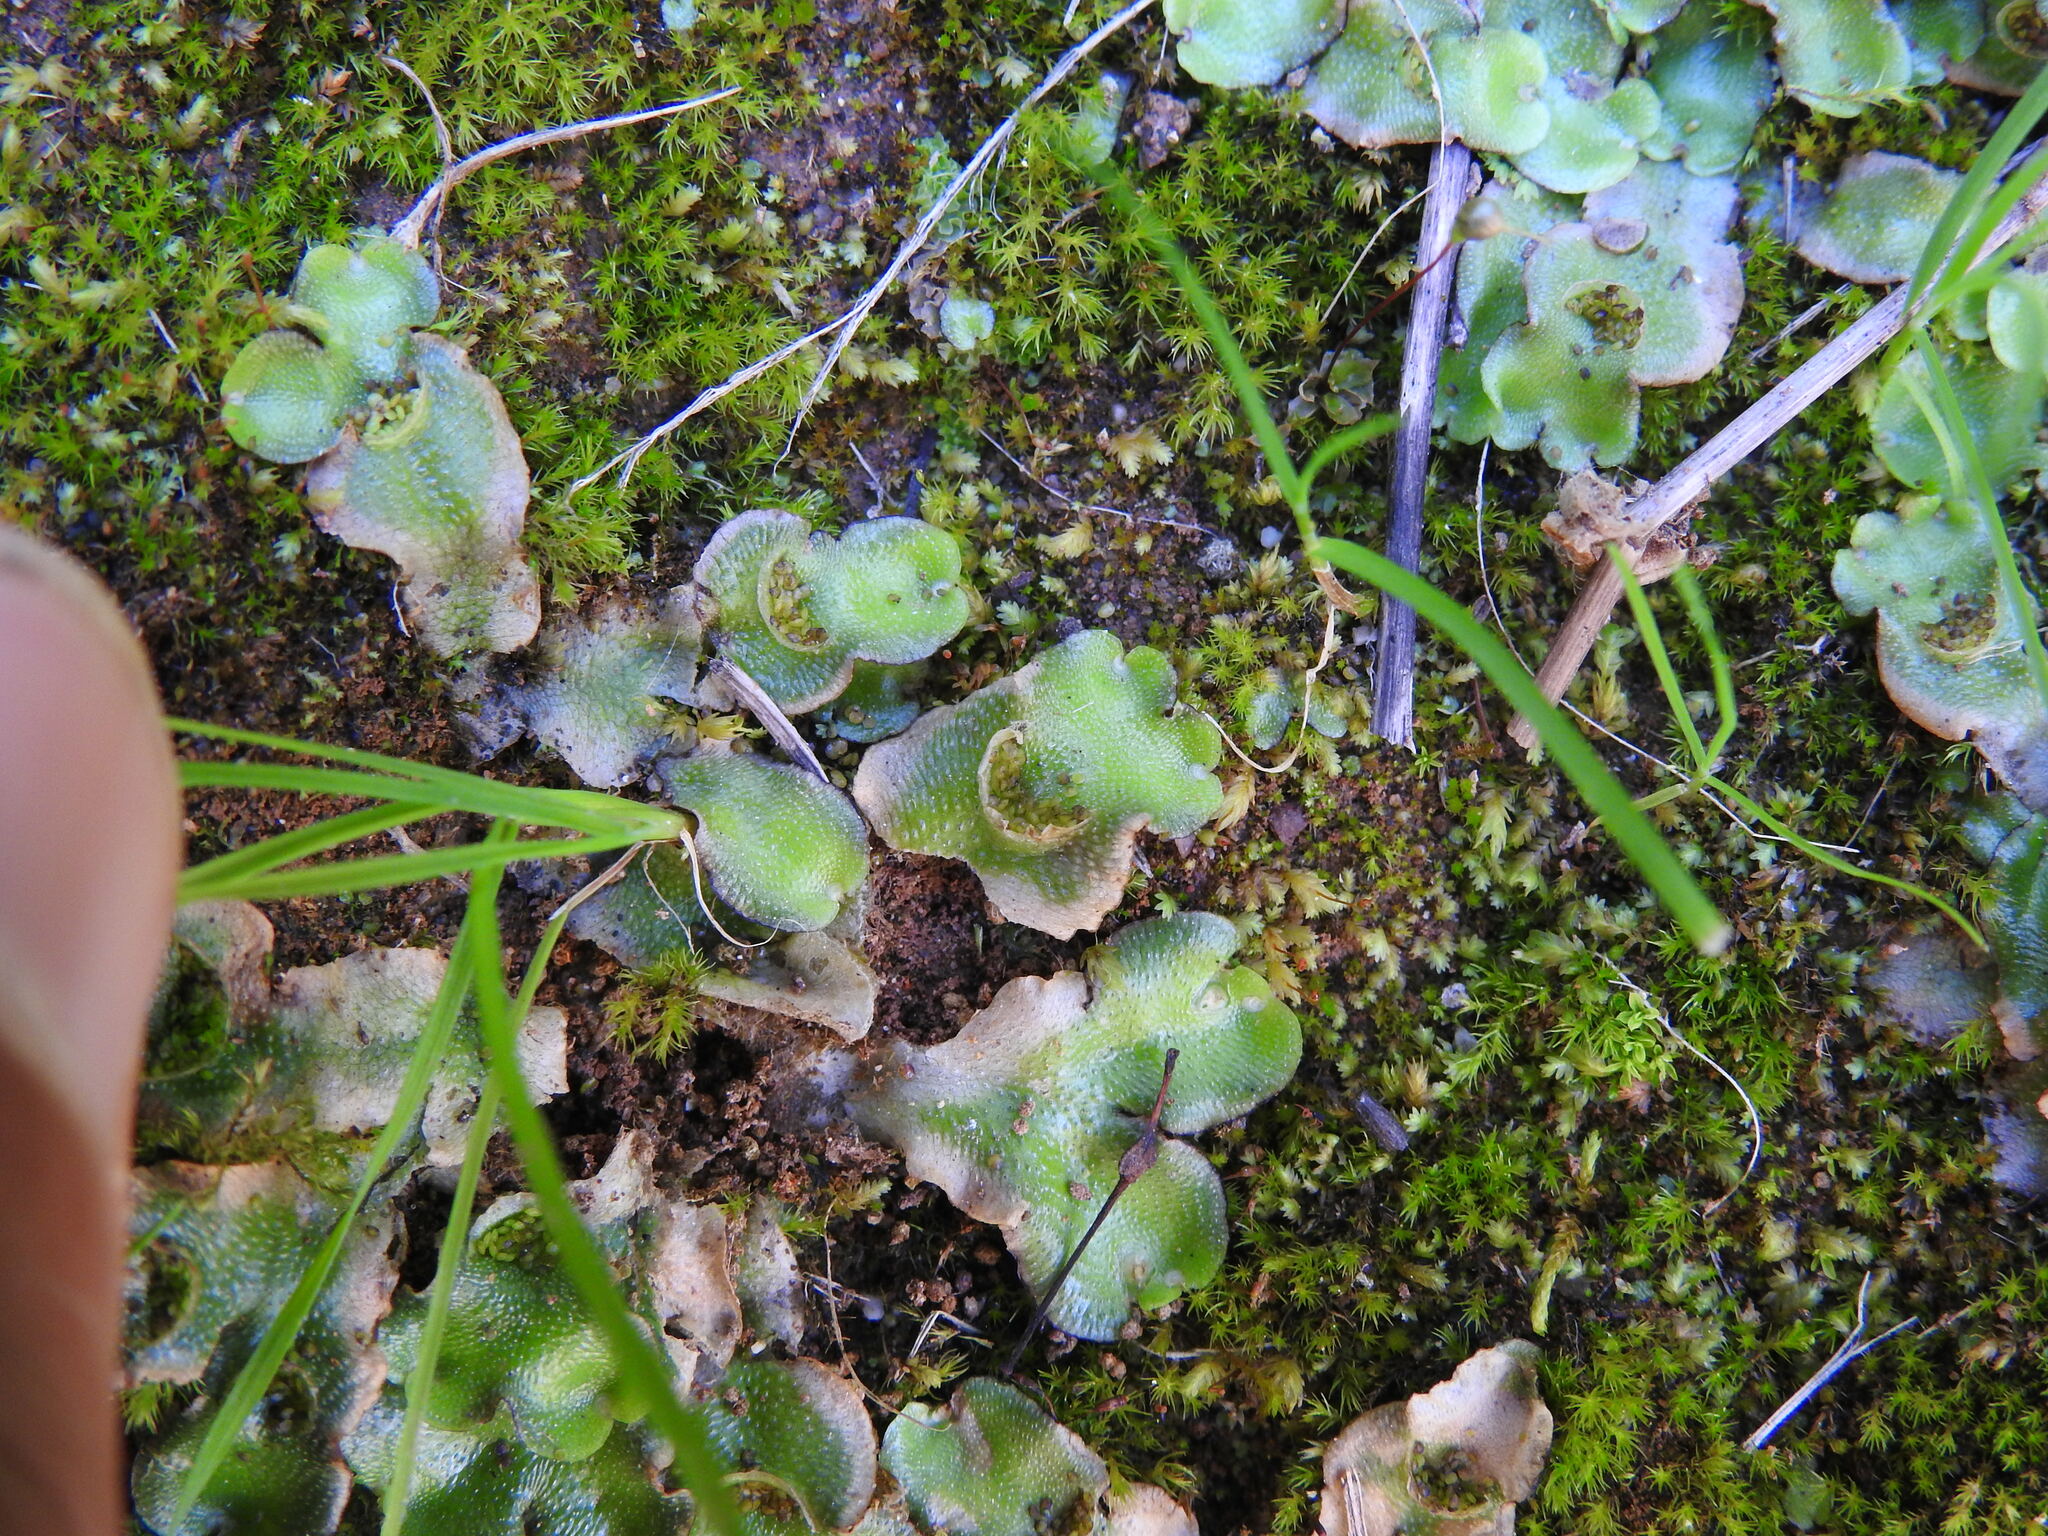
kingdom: Plantae
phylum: Marchantiophyta
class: Marchantiopsida
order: Lunulariales
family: Lunulariaceae
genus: Lunularia
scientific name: Lunularia cruciata
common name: Crescent-cup liverwort
